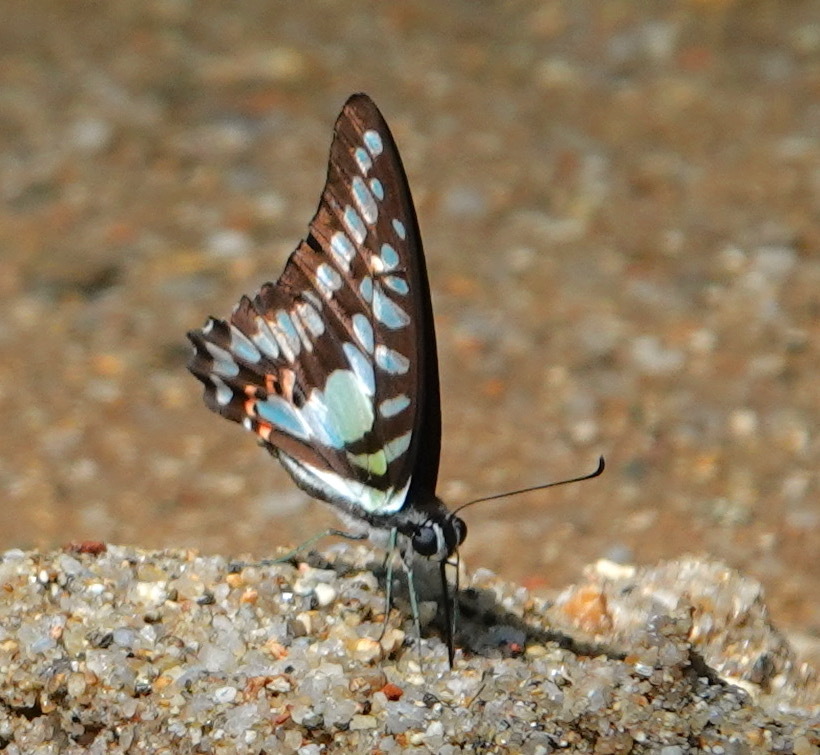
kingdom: Animalia
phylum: Arthropoda
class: Insecta
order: Lepidoptera
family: Papilionidae
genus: Graphium
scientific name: Graphium evemon
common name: Lesser jay
